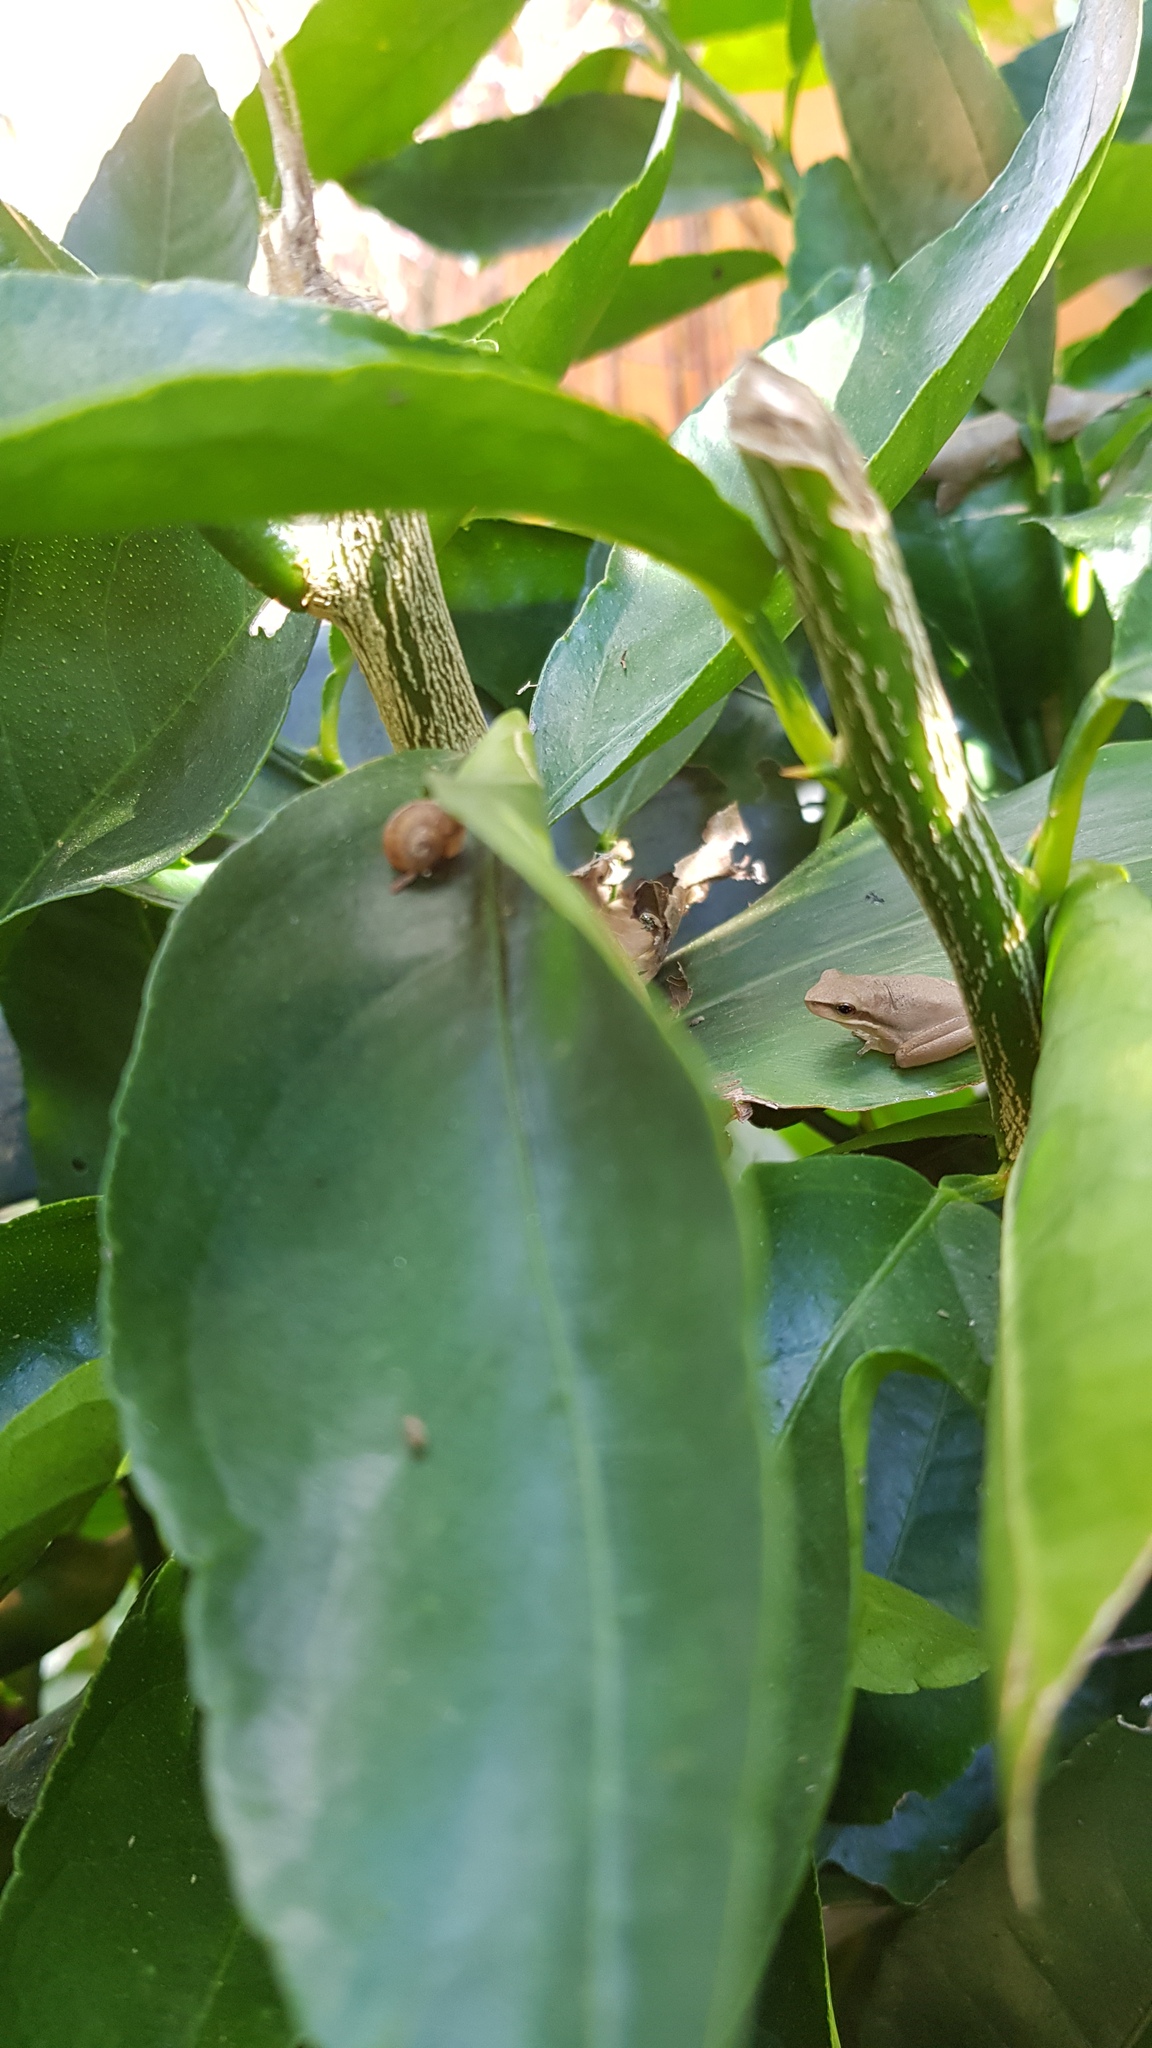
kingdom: Animalia
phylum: Chordata
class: Amphibia
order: Anura
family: Pelodryadidae
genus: Litoria
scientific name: Litoria fallax
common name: Eastern dwarf treefrog
